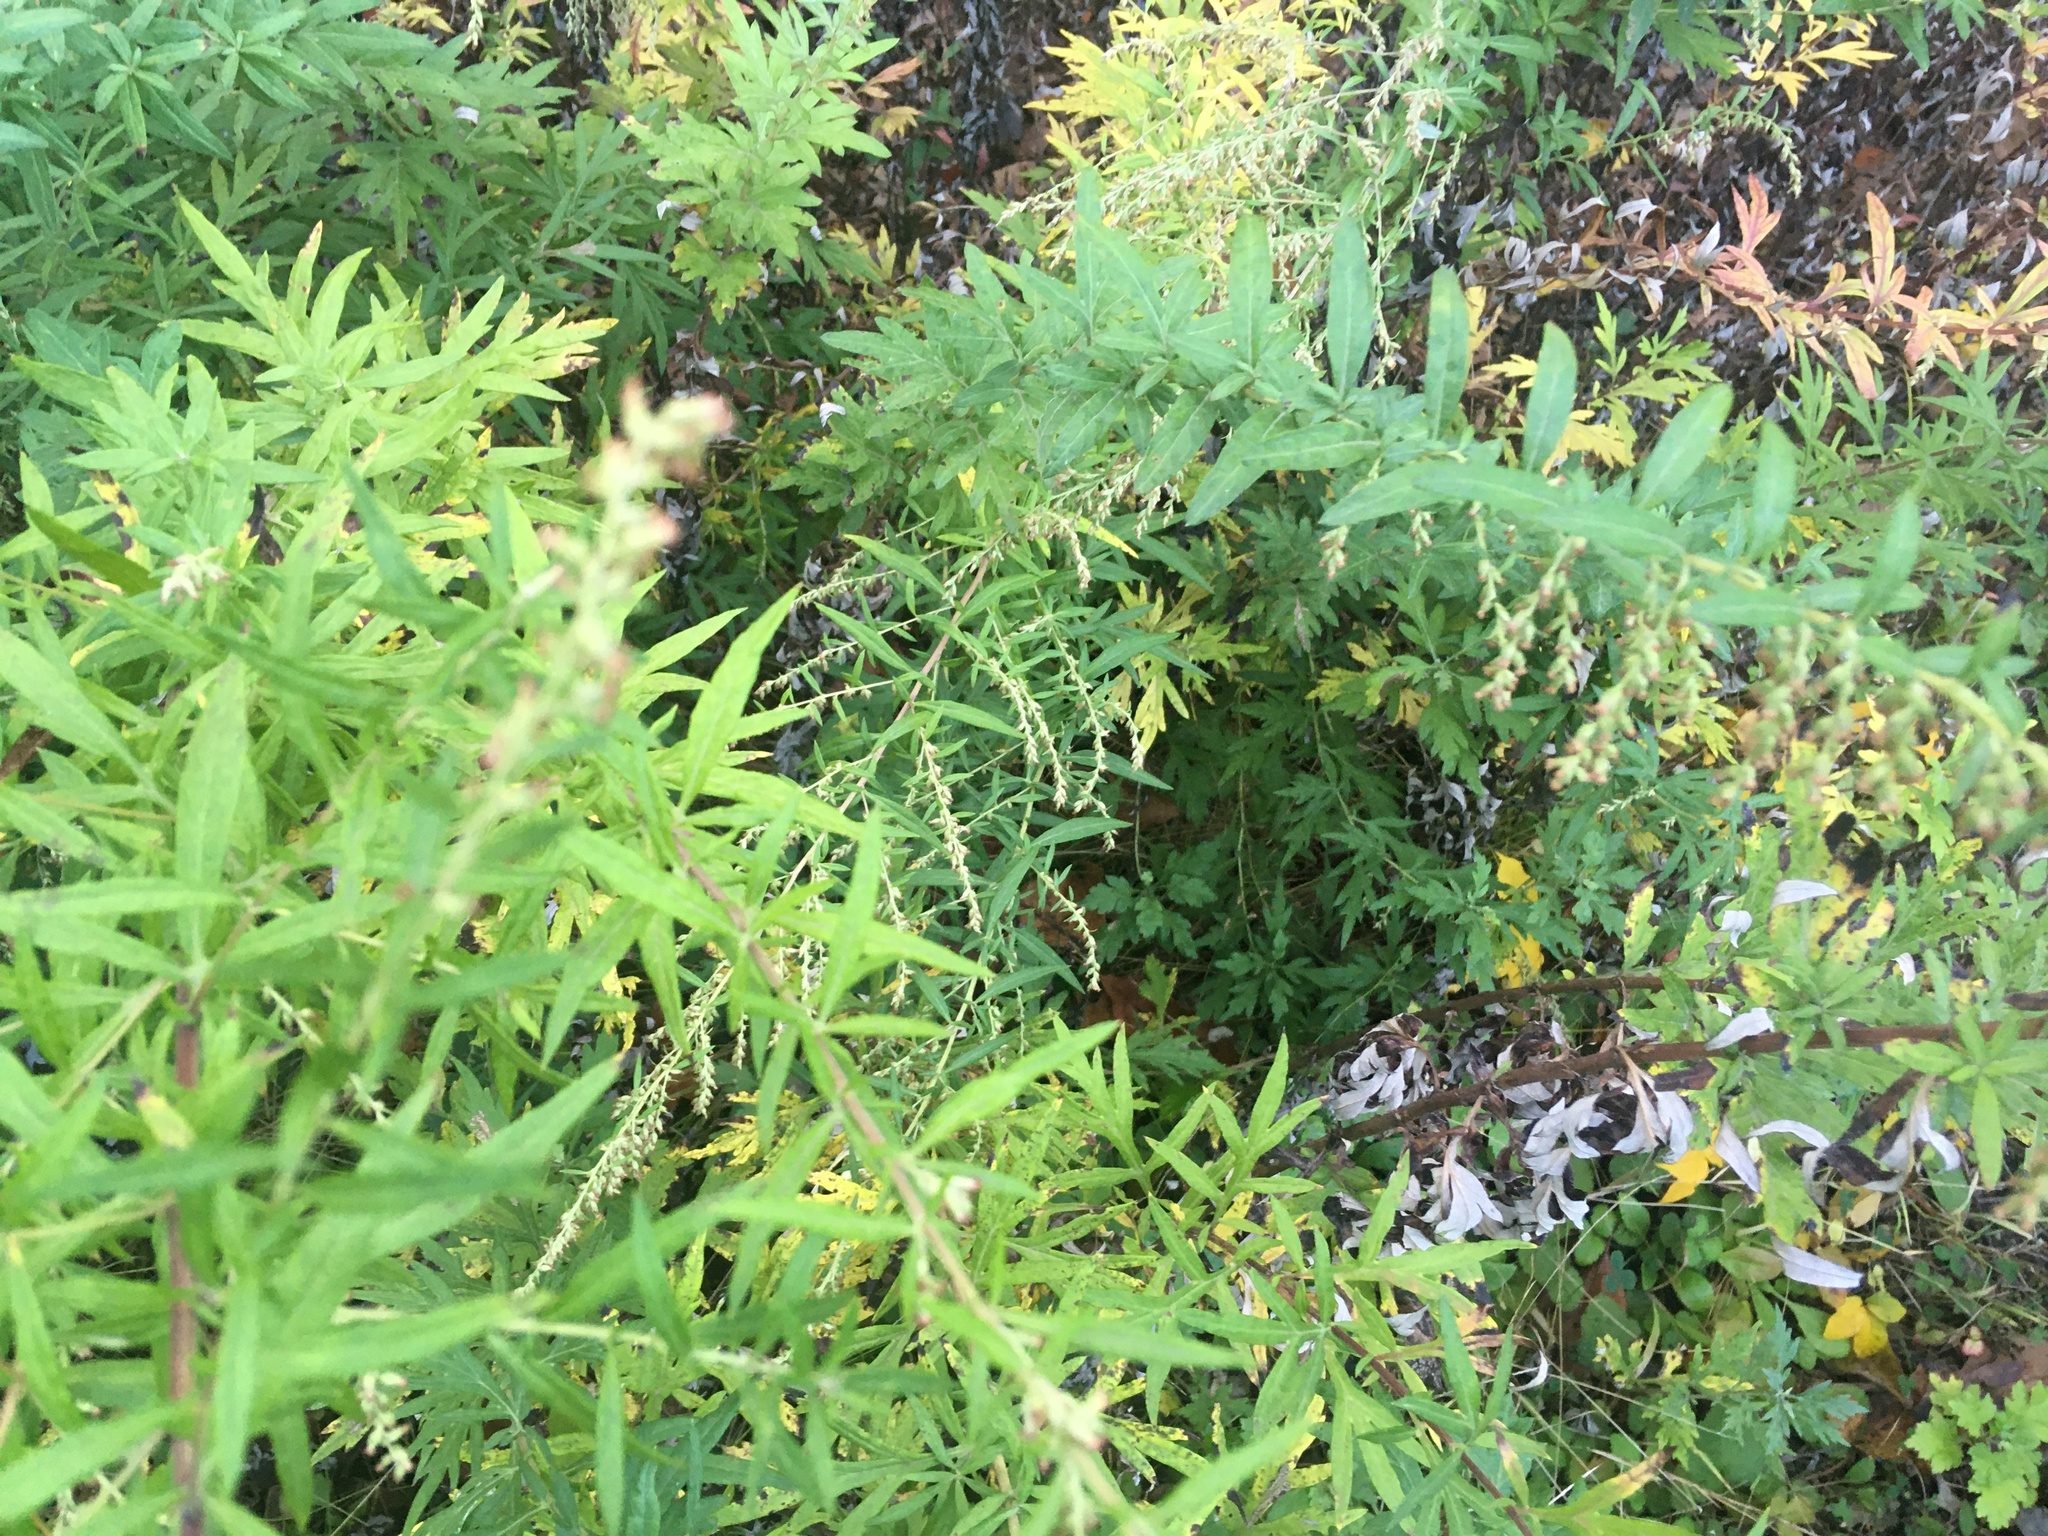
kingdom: Plantae
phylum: Tracheophyta
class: Magnoliopsida
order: Asterales
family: Asteraceae
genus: Artemisia
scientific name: Artemisia vulgaris
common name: Mugwort
